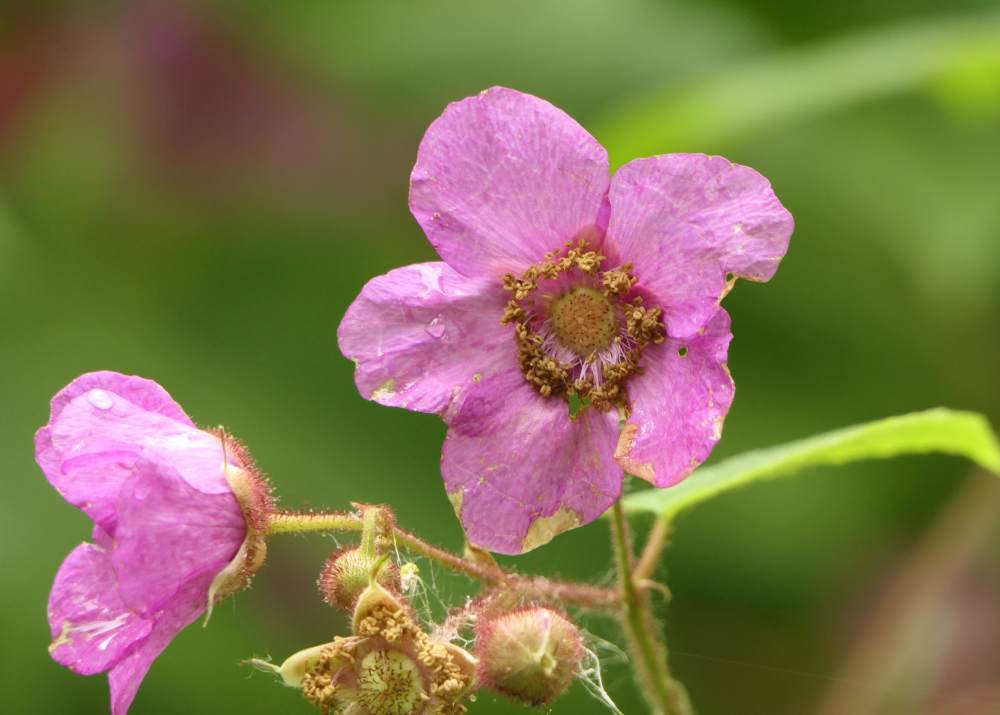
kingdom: Plantae
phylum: Tracheophyta
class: Magnoliopsida
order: Rosales
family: Rosaceae
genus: Rubus
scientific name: Rubus odoratus
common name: Purple-flowered raspberry
